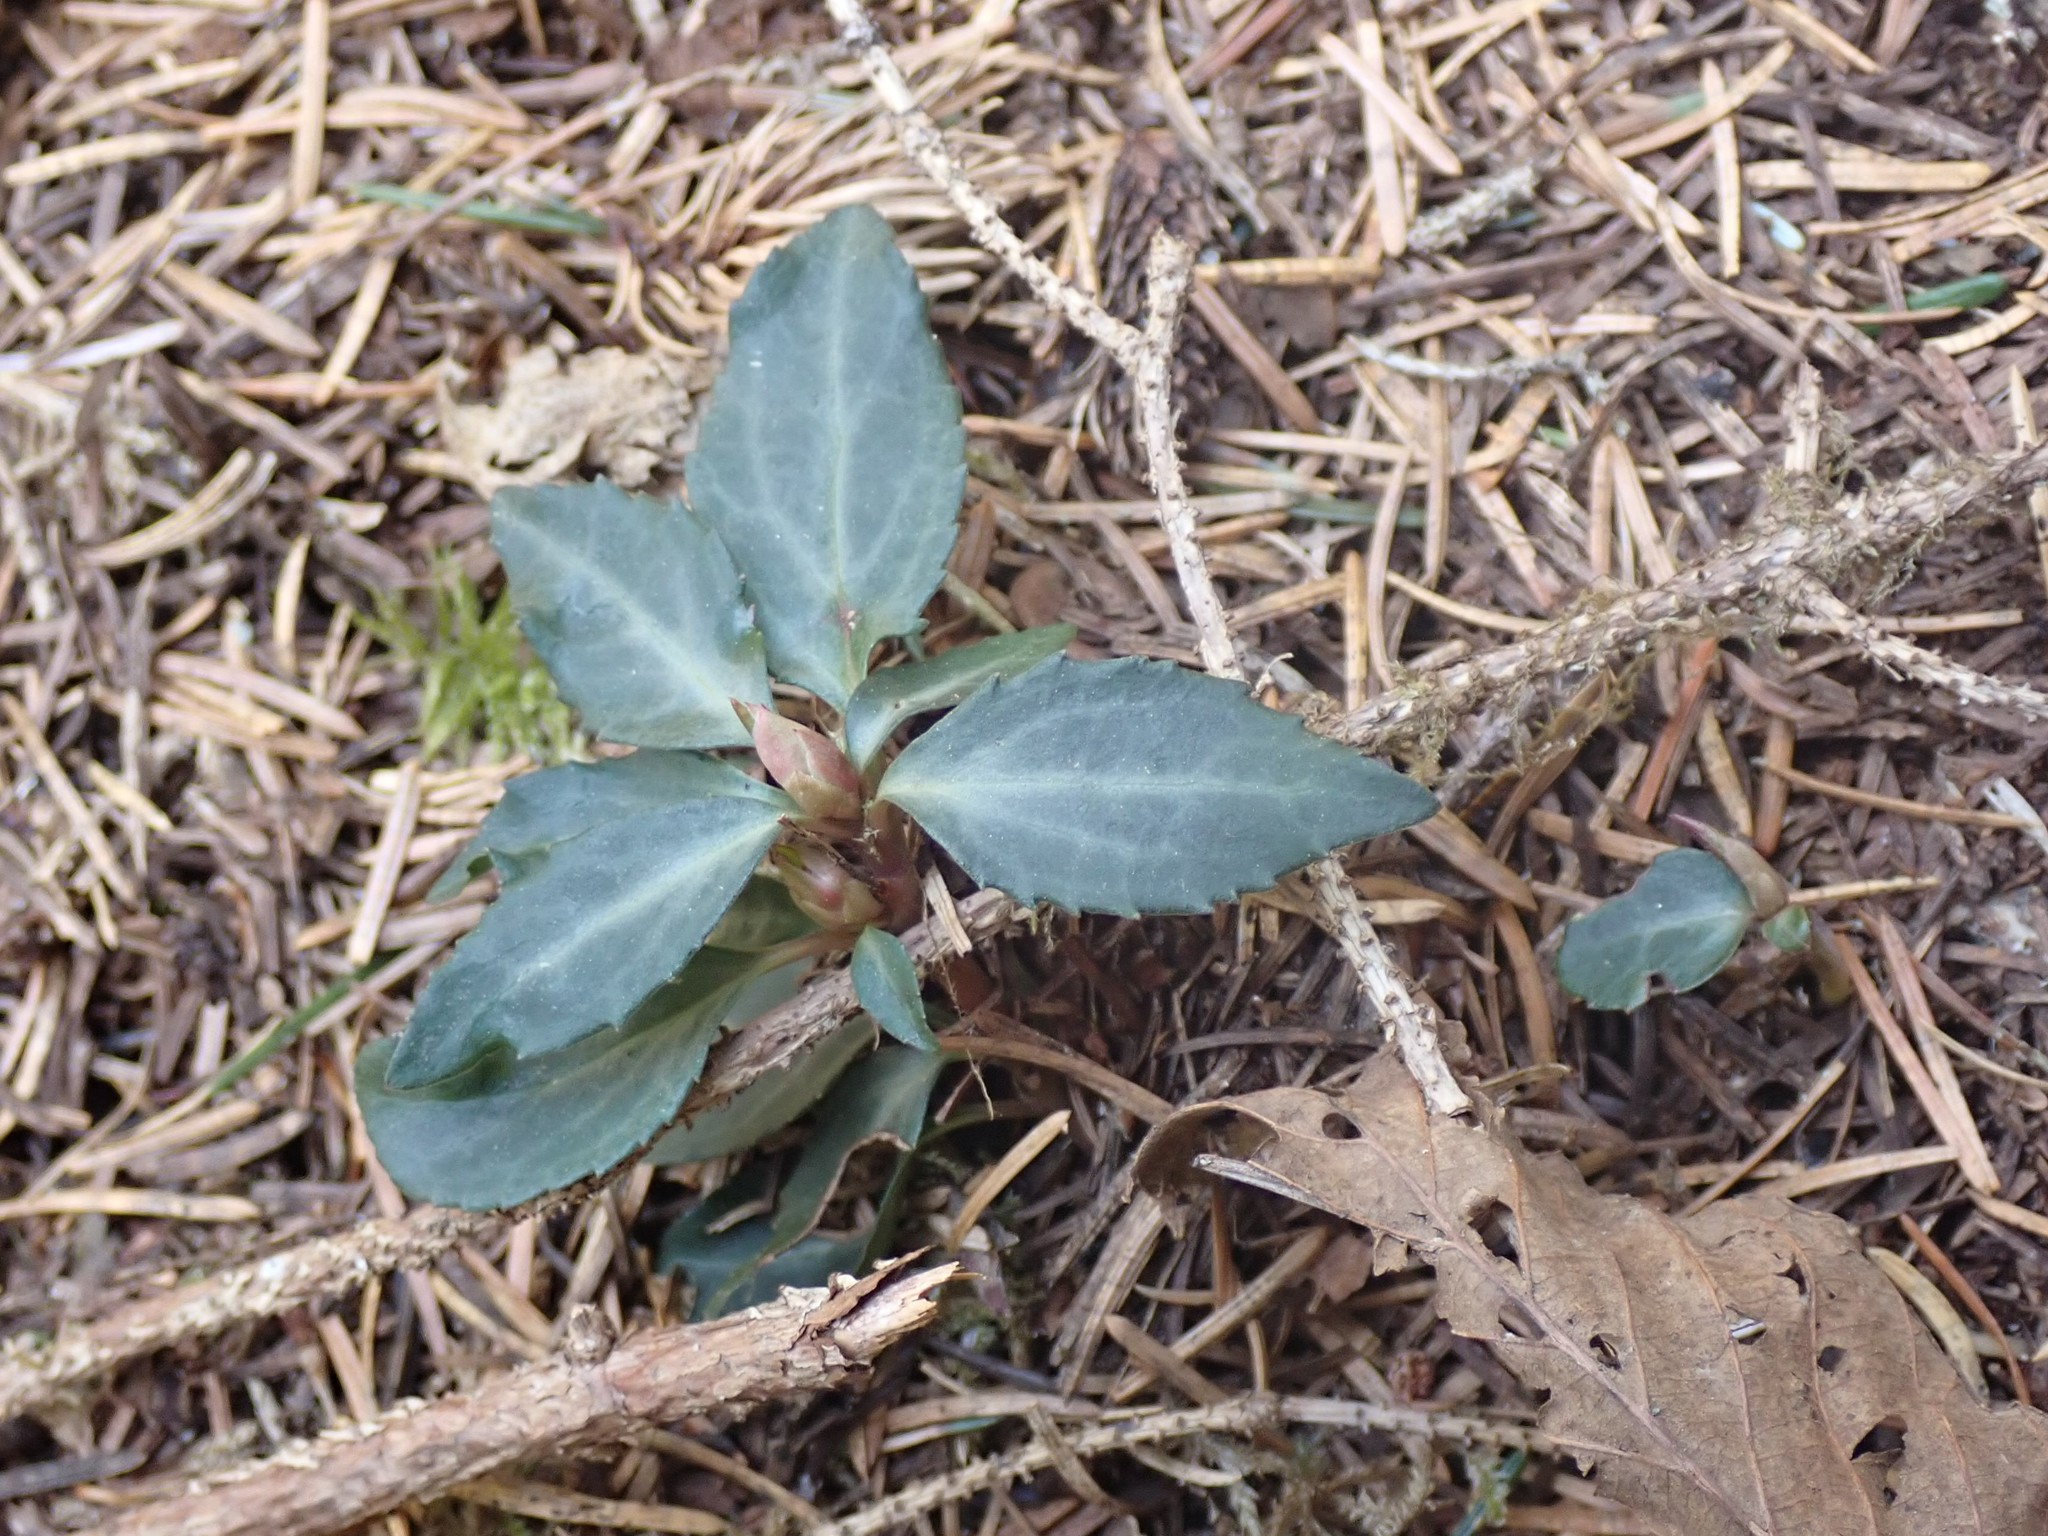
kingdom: Plantae
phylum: Tracheophyta
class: Magnoliopsida
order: Ericales
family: Ericaceae
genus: Chimaphila
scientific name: Chimaphila menziesii
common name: Menzies' pipsissewa
